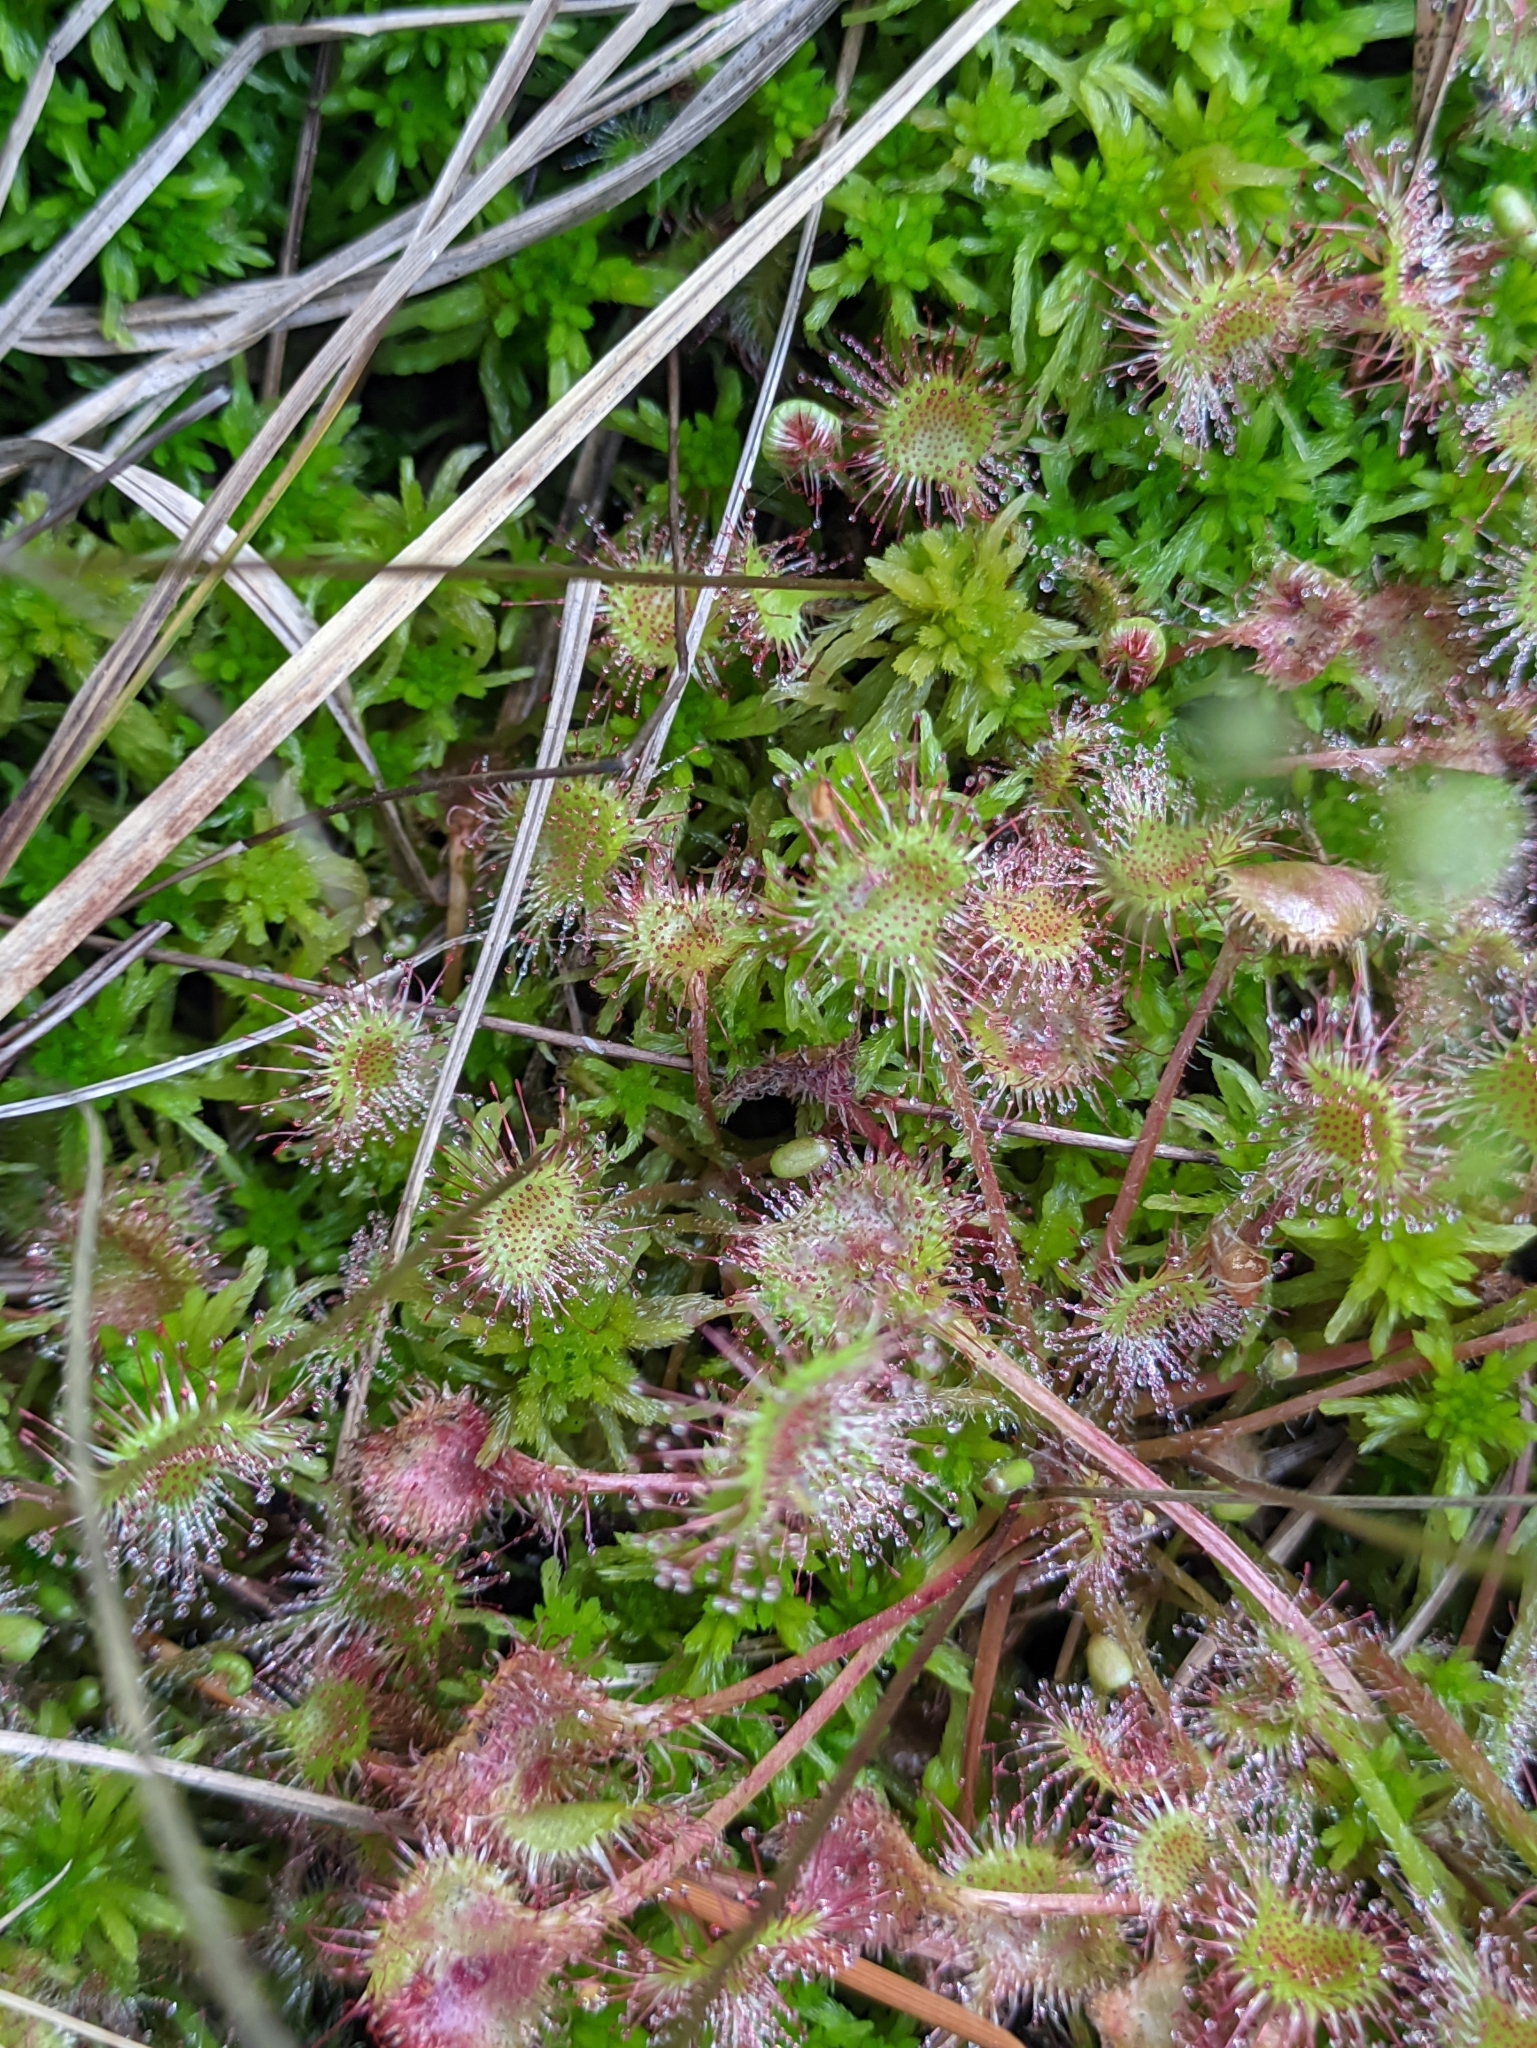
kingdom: Plantae
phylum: Tracheophyta
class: Magnoliopsida
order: Caryophyllales
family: Droseraceae
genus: Drosera
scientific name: Drosera rotundifolia
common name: Round-leaved sundew
